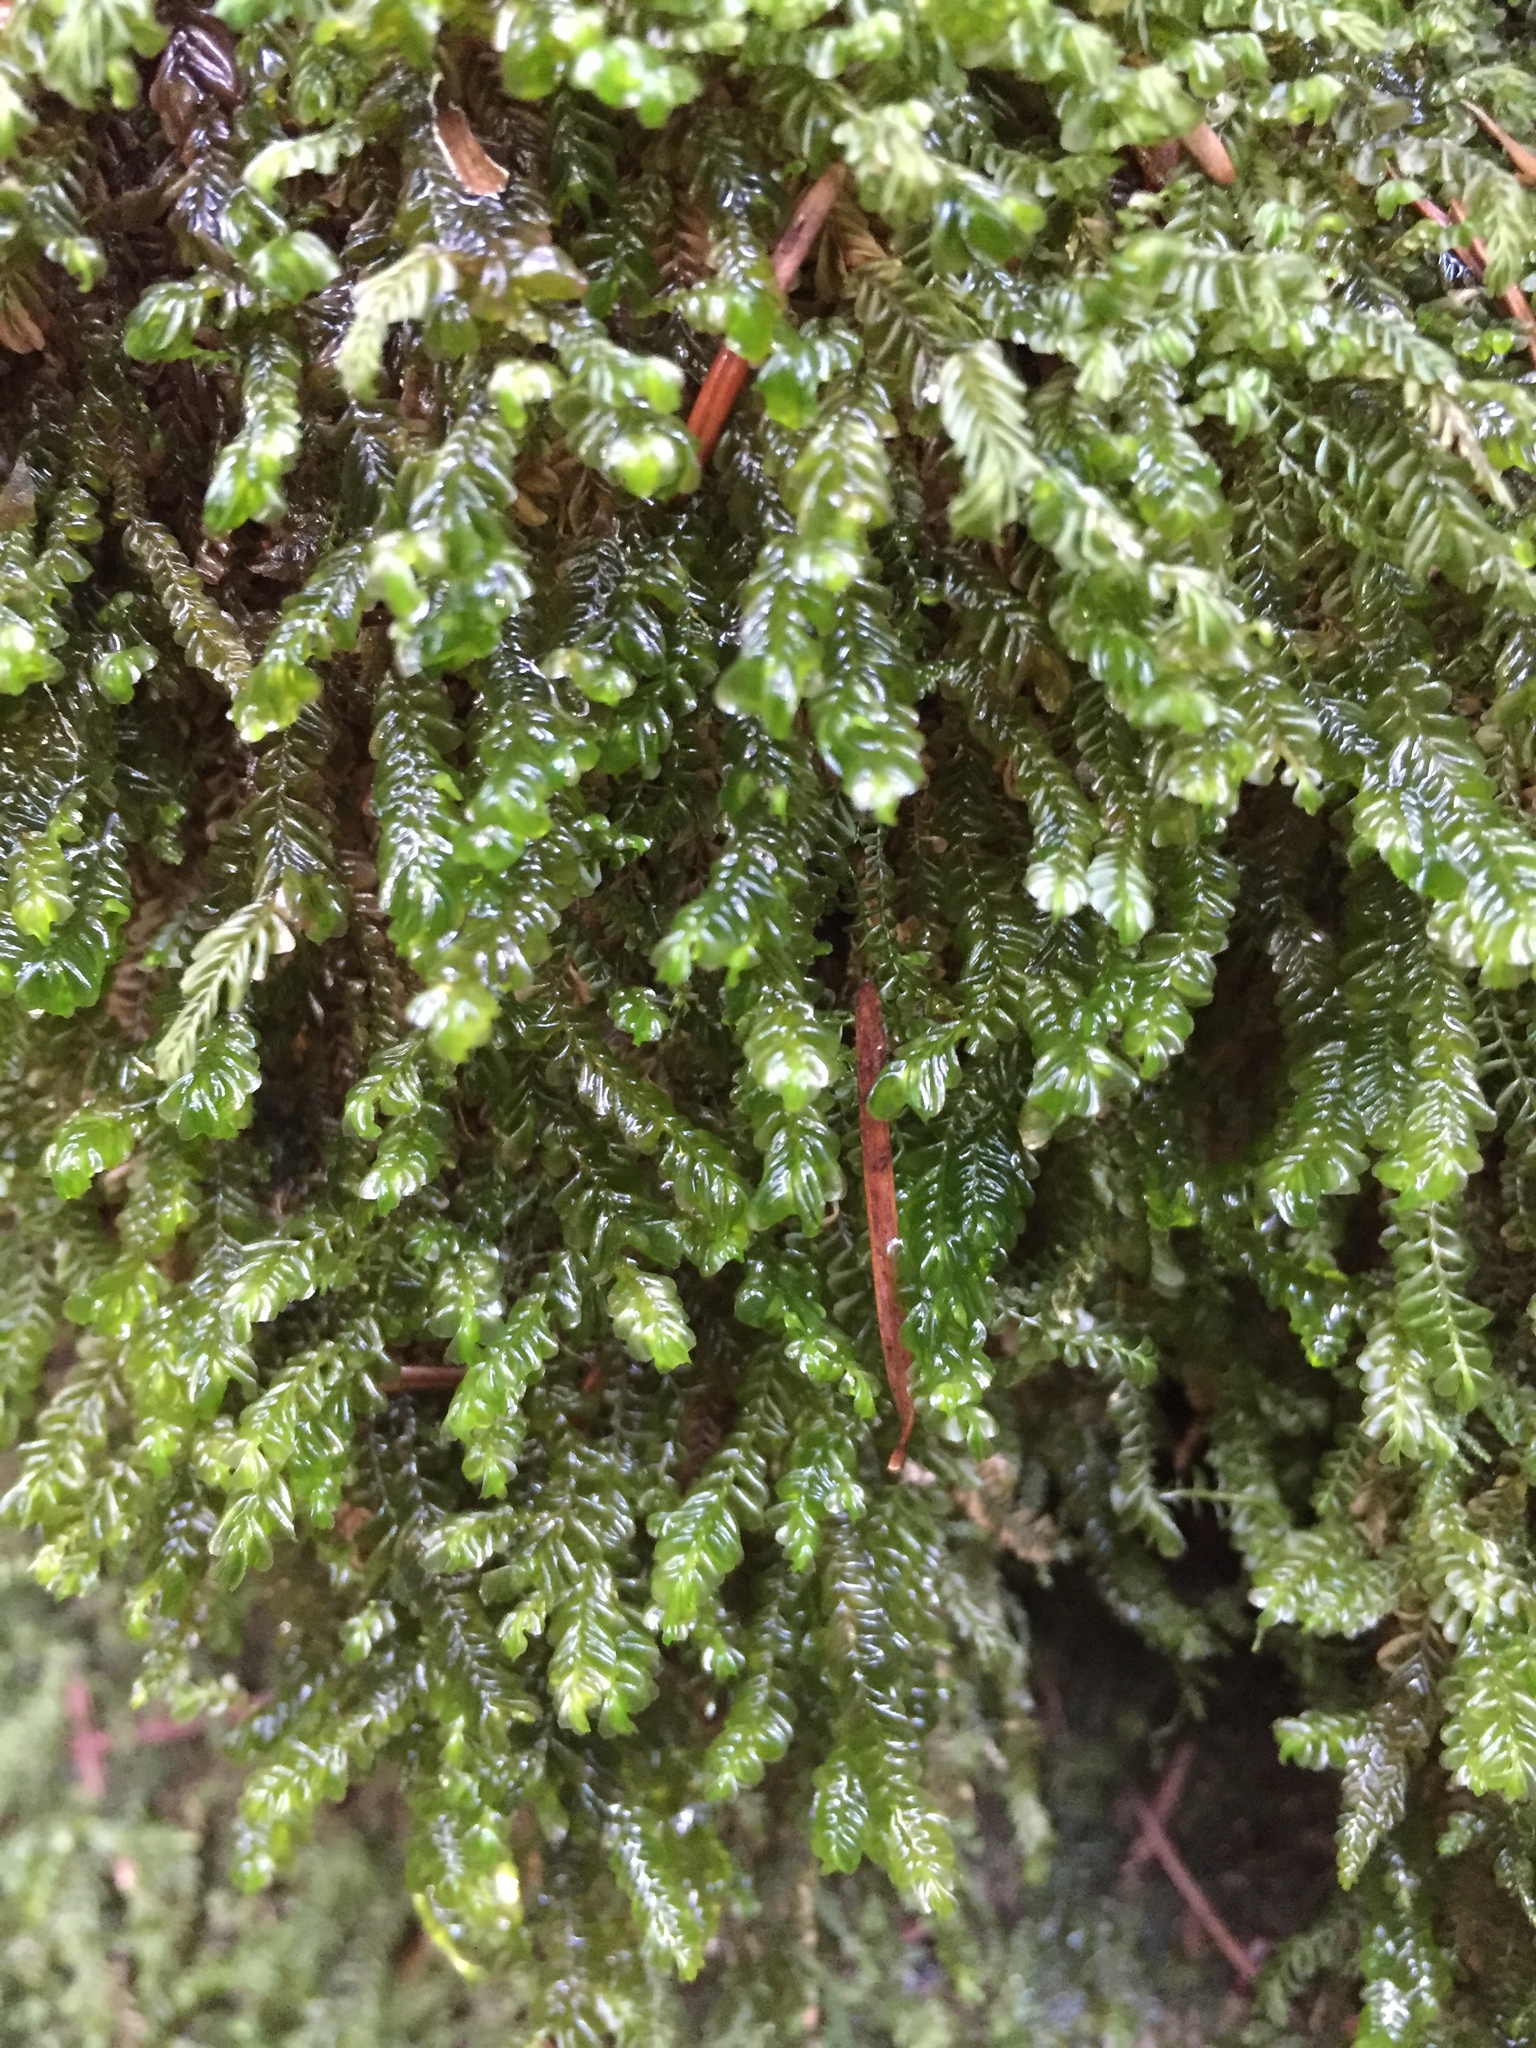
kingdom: Plantae
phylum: Marchantiophyta
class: Jungermanniopsida
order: Jungermanniales
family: Plagiochilaceae
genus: Plagiochila
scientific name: Plagiochila porelloides
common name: Lesser featherwort
